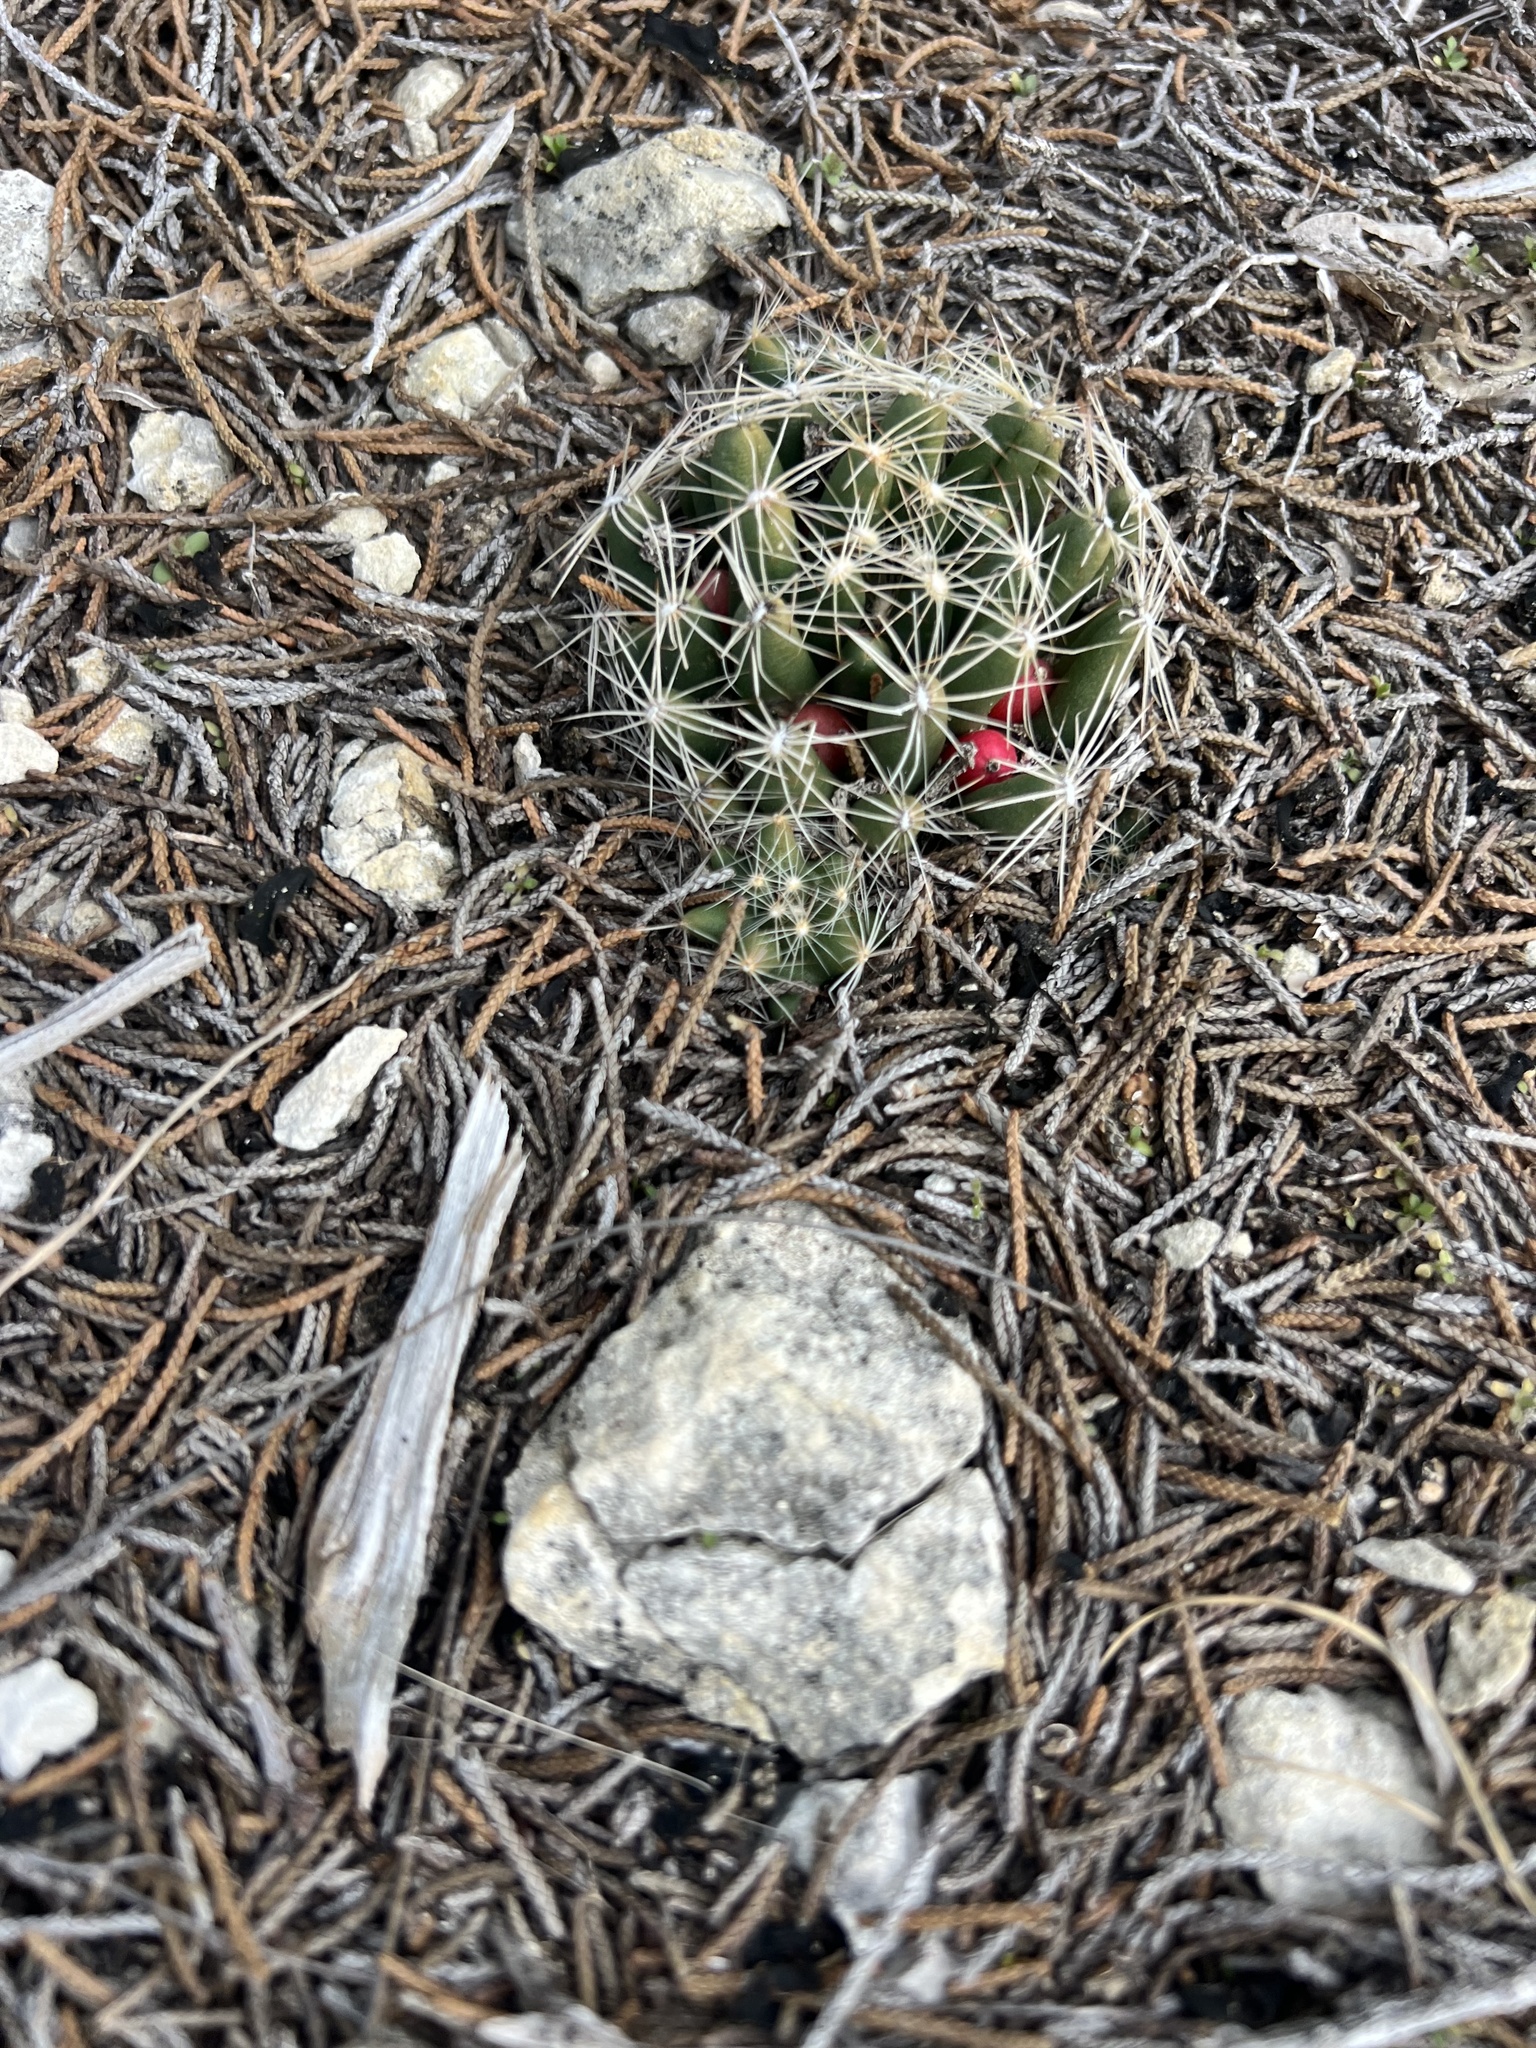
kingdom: Plantae
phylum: Tracheophyta
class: Magnoliopsida
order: Caryophyllales
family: Cactaceae
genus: Pelecyphora
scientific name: Pelecyphora missouriensis
